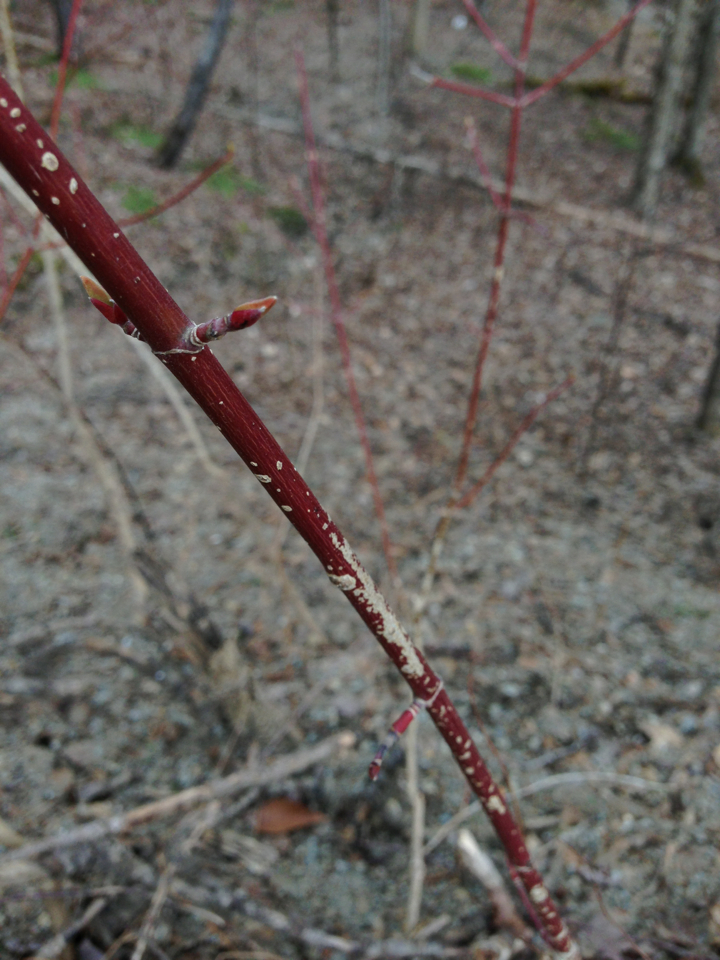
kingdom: Plantae
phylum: Tracheophyta
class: Magnoliopsida
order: Sapindales
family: Sapindaceae
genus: Acer
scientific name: Acer spicatum
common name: Mountain maple
